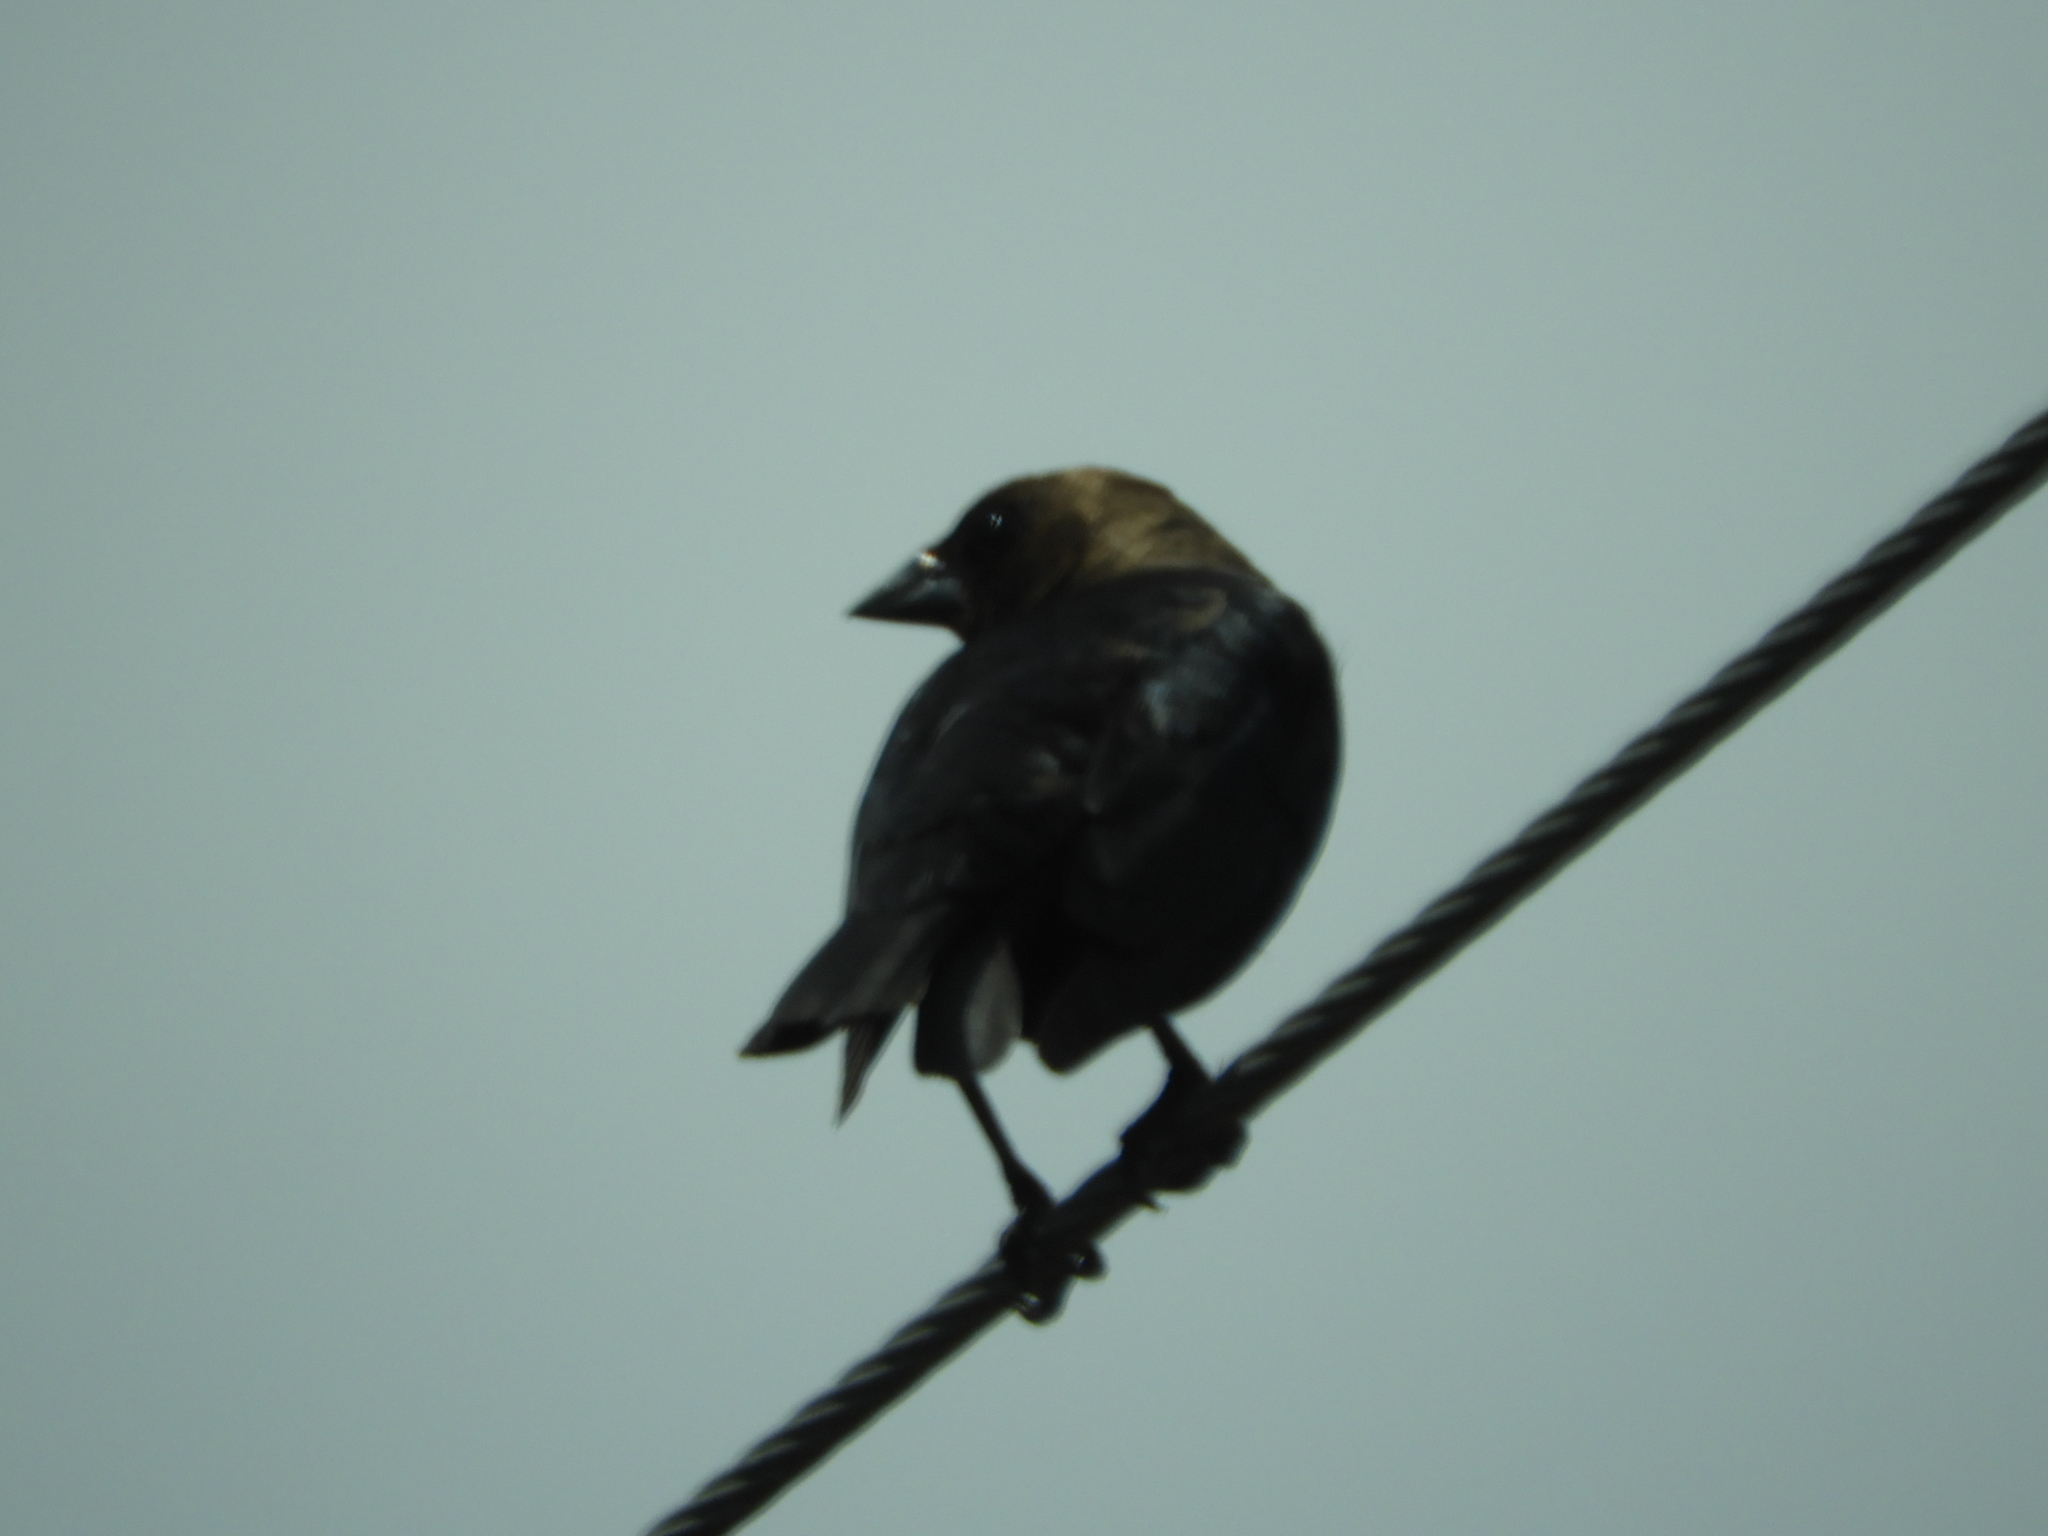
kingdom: Animalia
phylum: Chordata
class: Aves
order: Passeriformes
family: Icteridae
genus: Molothrus
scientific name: Molothrus ater
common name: Brown-headed cowbird
